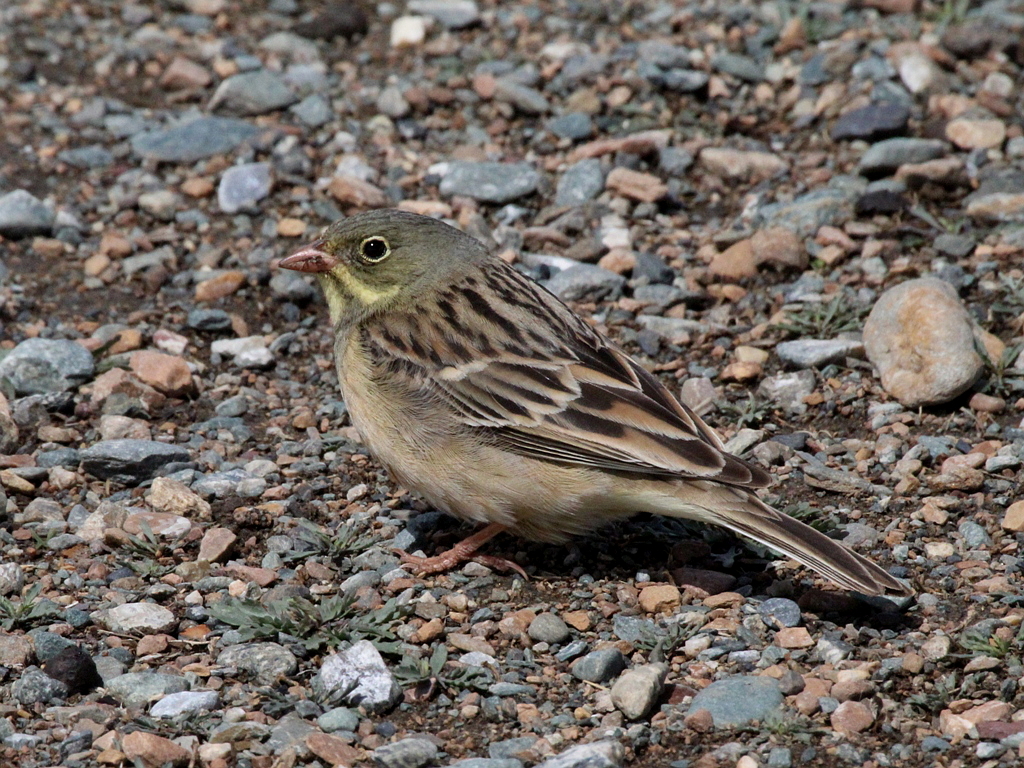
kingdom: Animalia
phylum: Chordata
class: Aves
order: Passeriformes
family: Emberizidae
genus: Emberiza
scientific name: Emberiza hortulana
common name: Ortolan bunting
